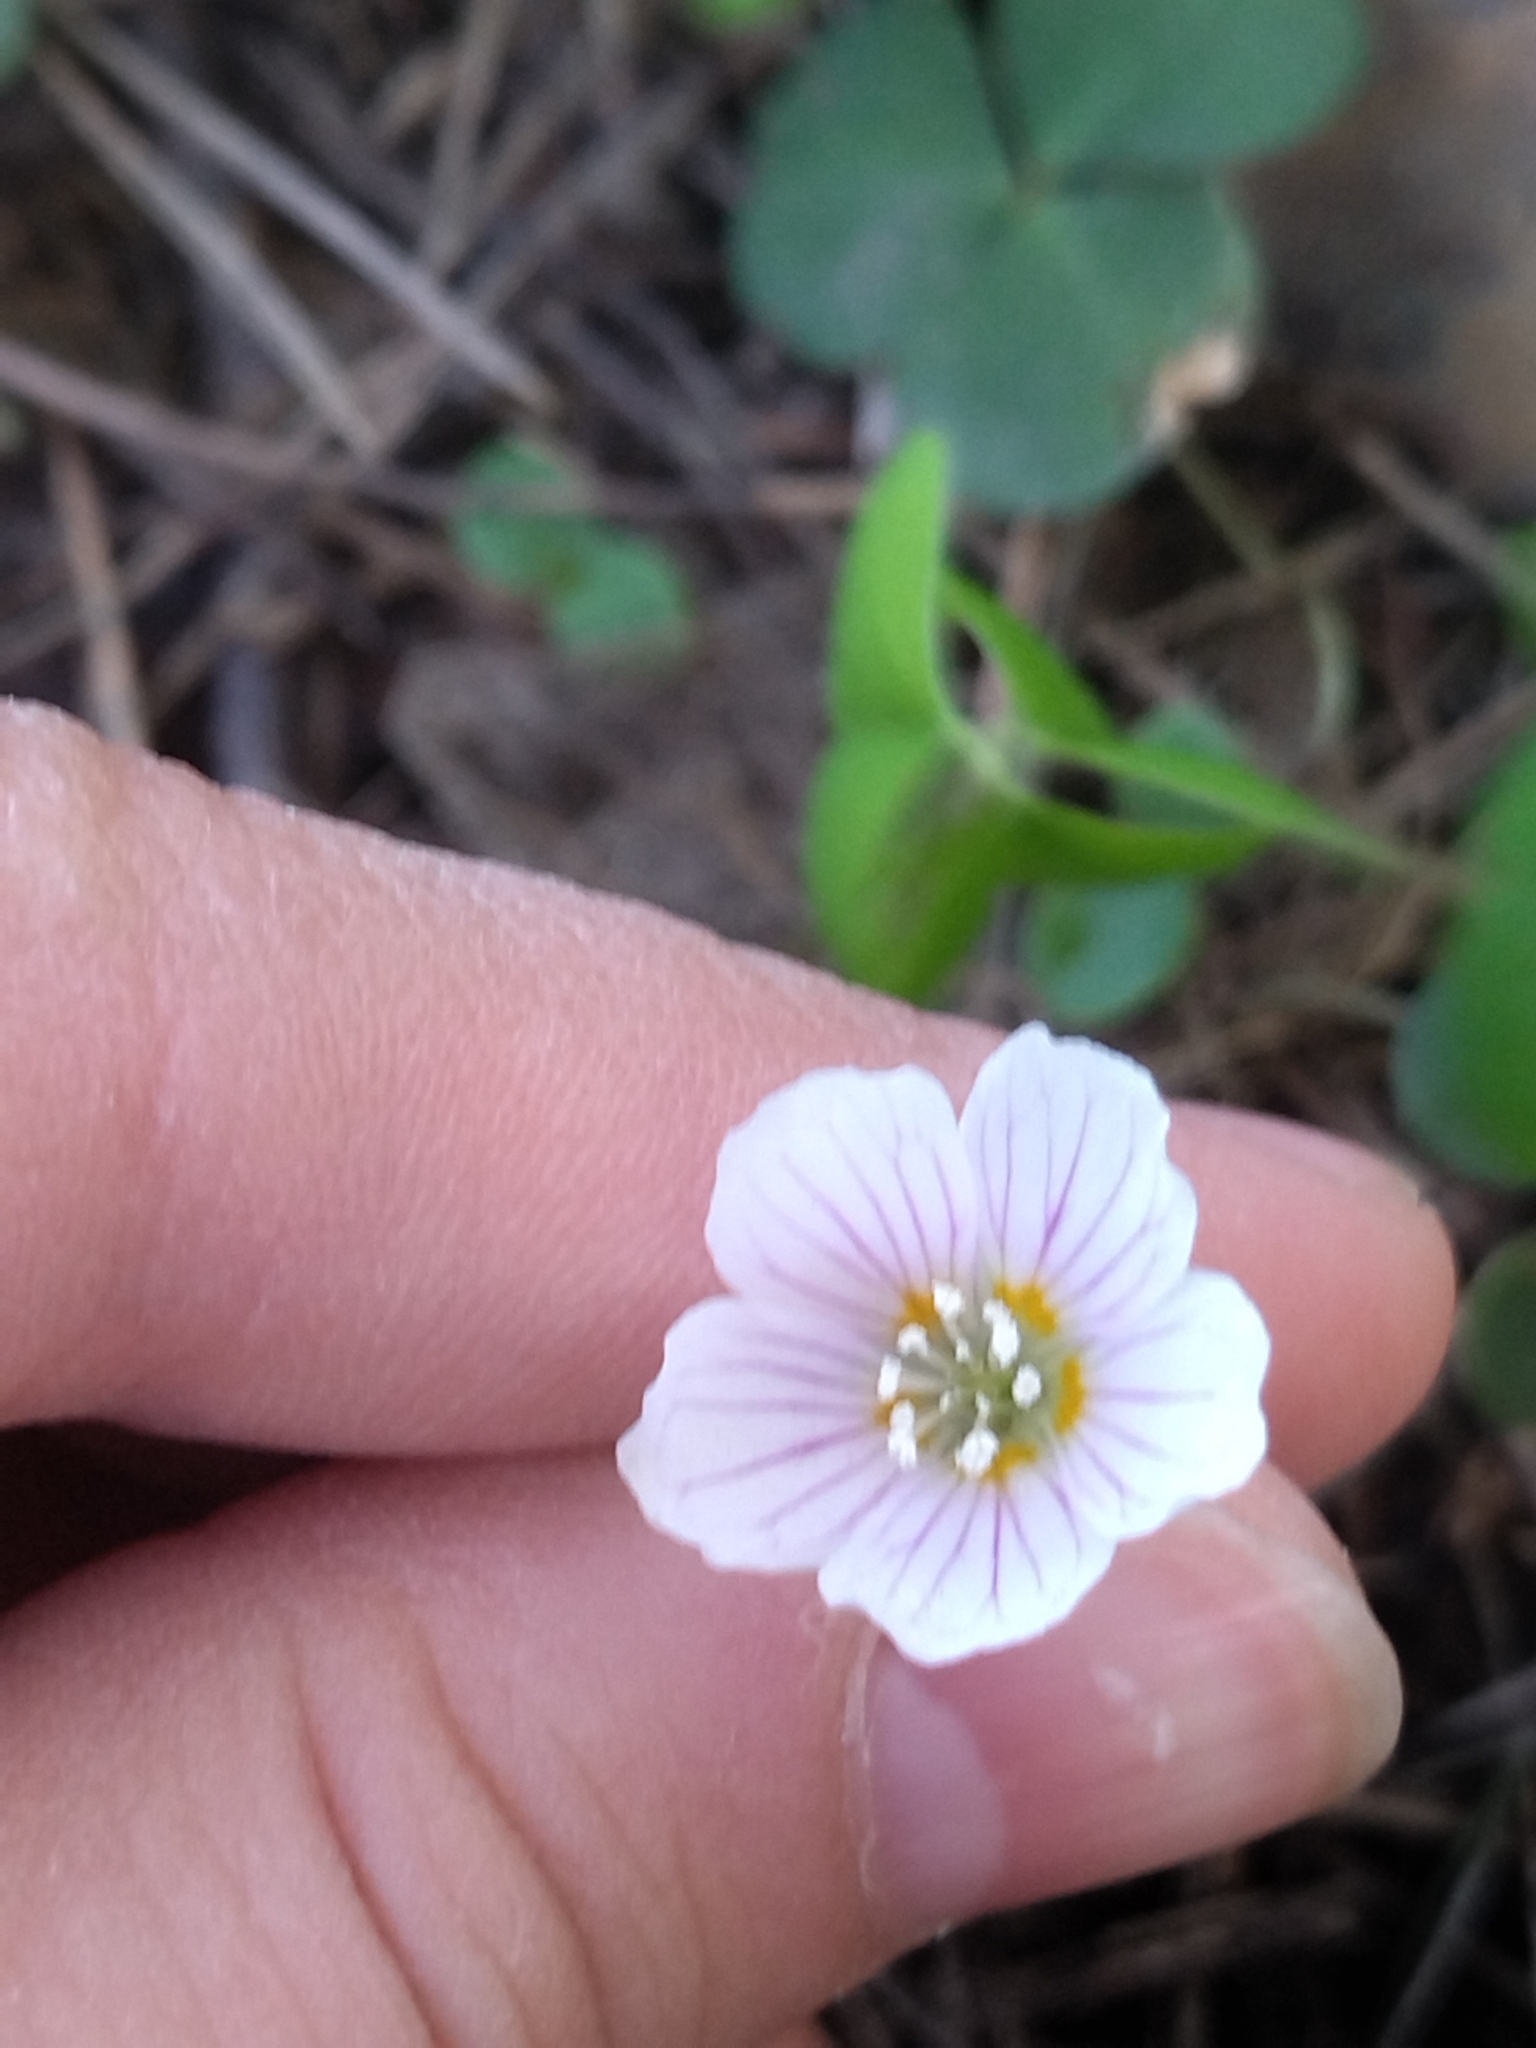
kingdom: Plantae
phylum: Tracheophyta
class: Magnoliopsida
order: Oxalidales
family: Oxalidaceae
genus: Oxalis
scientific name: Oxalis acetosella
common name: Wood-sorrel
